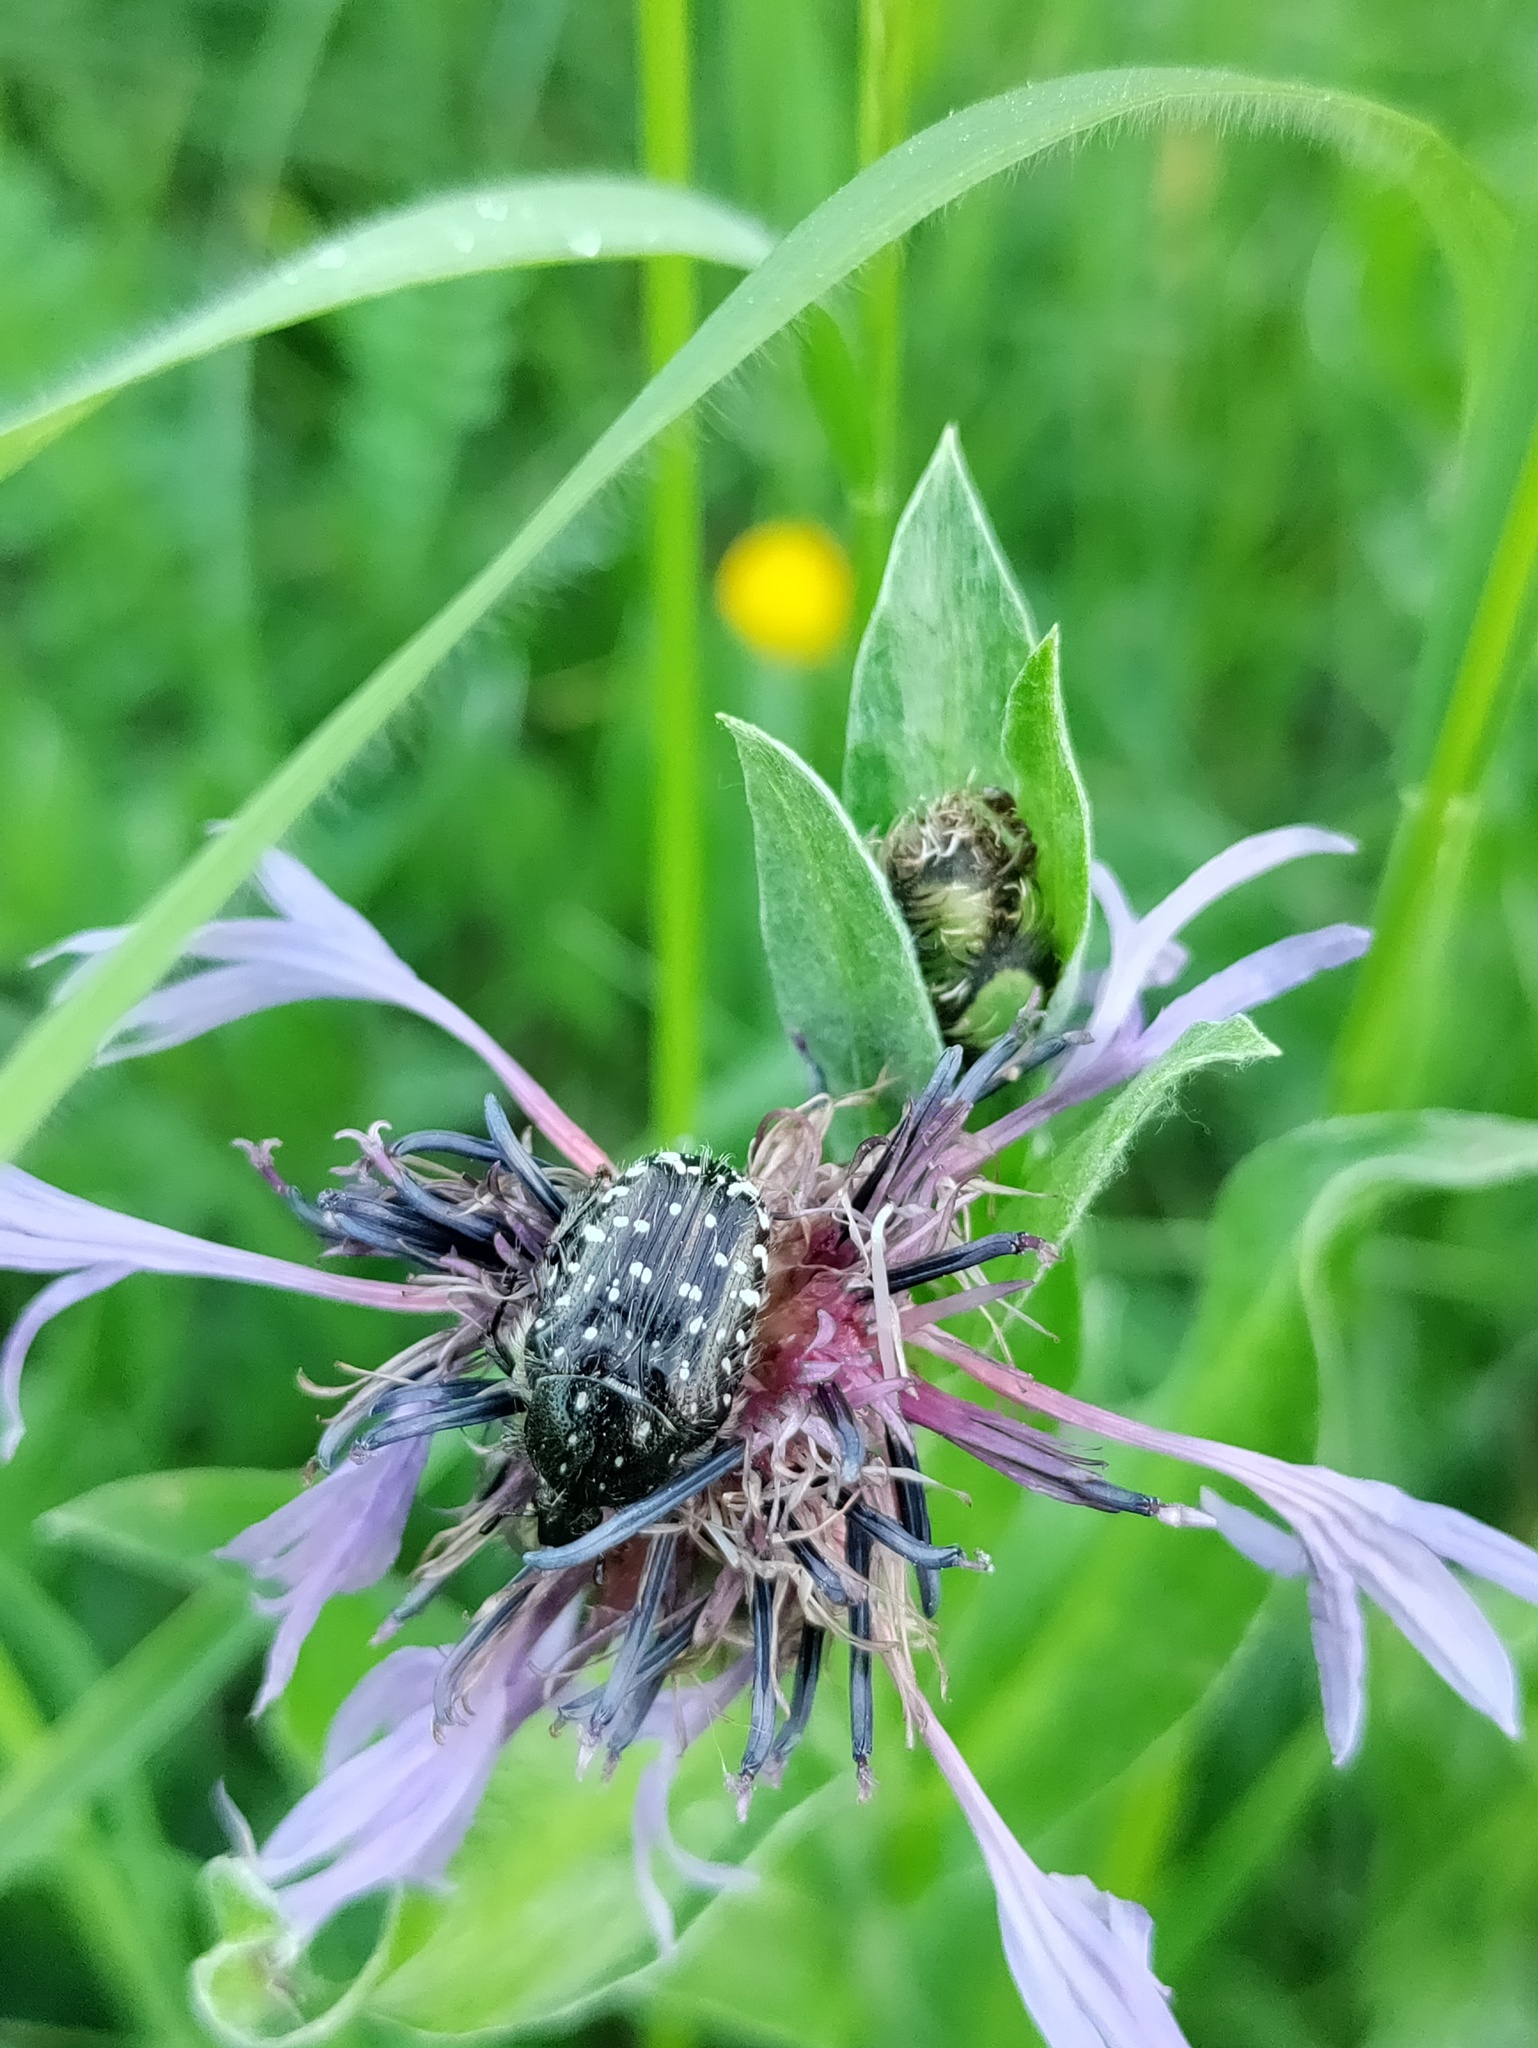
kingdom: Animalia
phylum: Arthropoda
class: Insecta
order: Coleoptera
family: Scarabaeidae
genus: Oxythyrea
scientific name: Oxythyrea funesta
